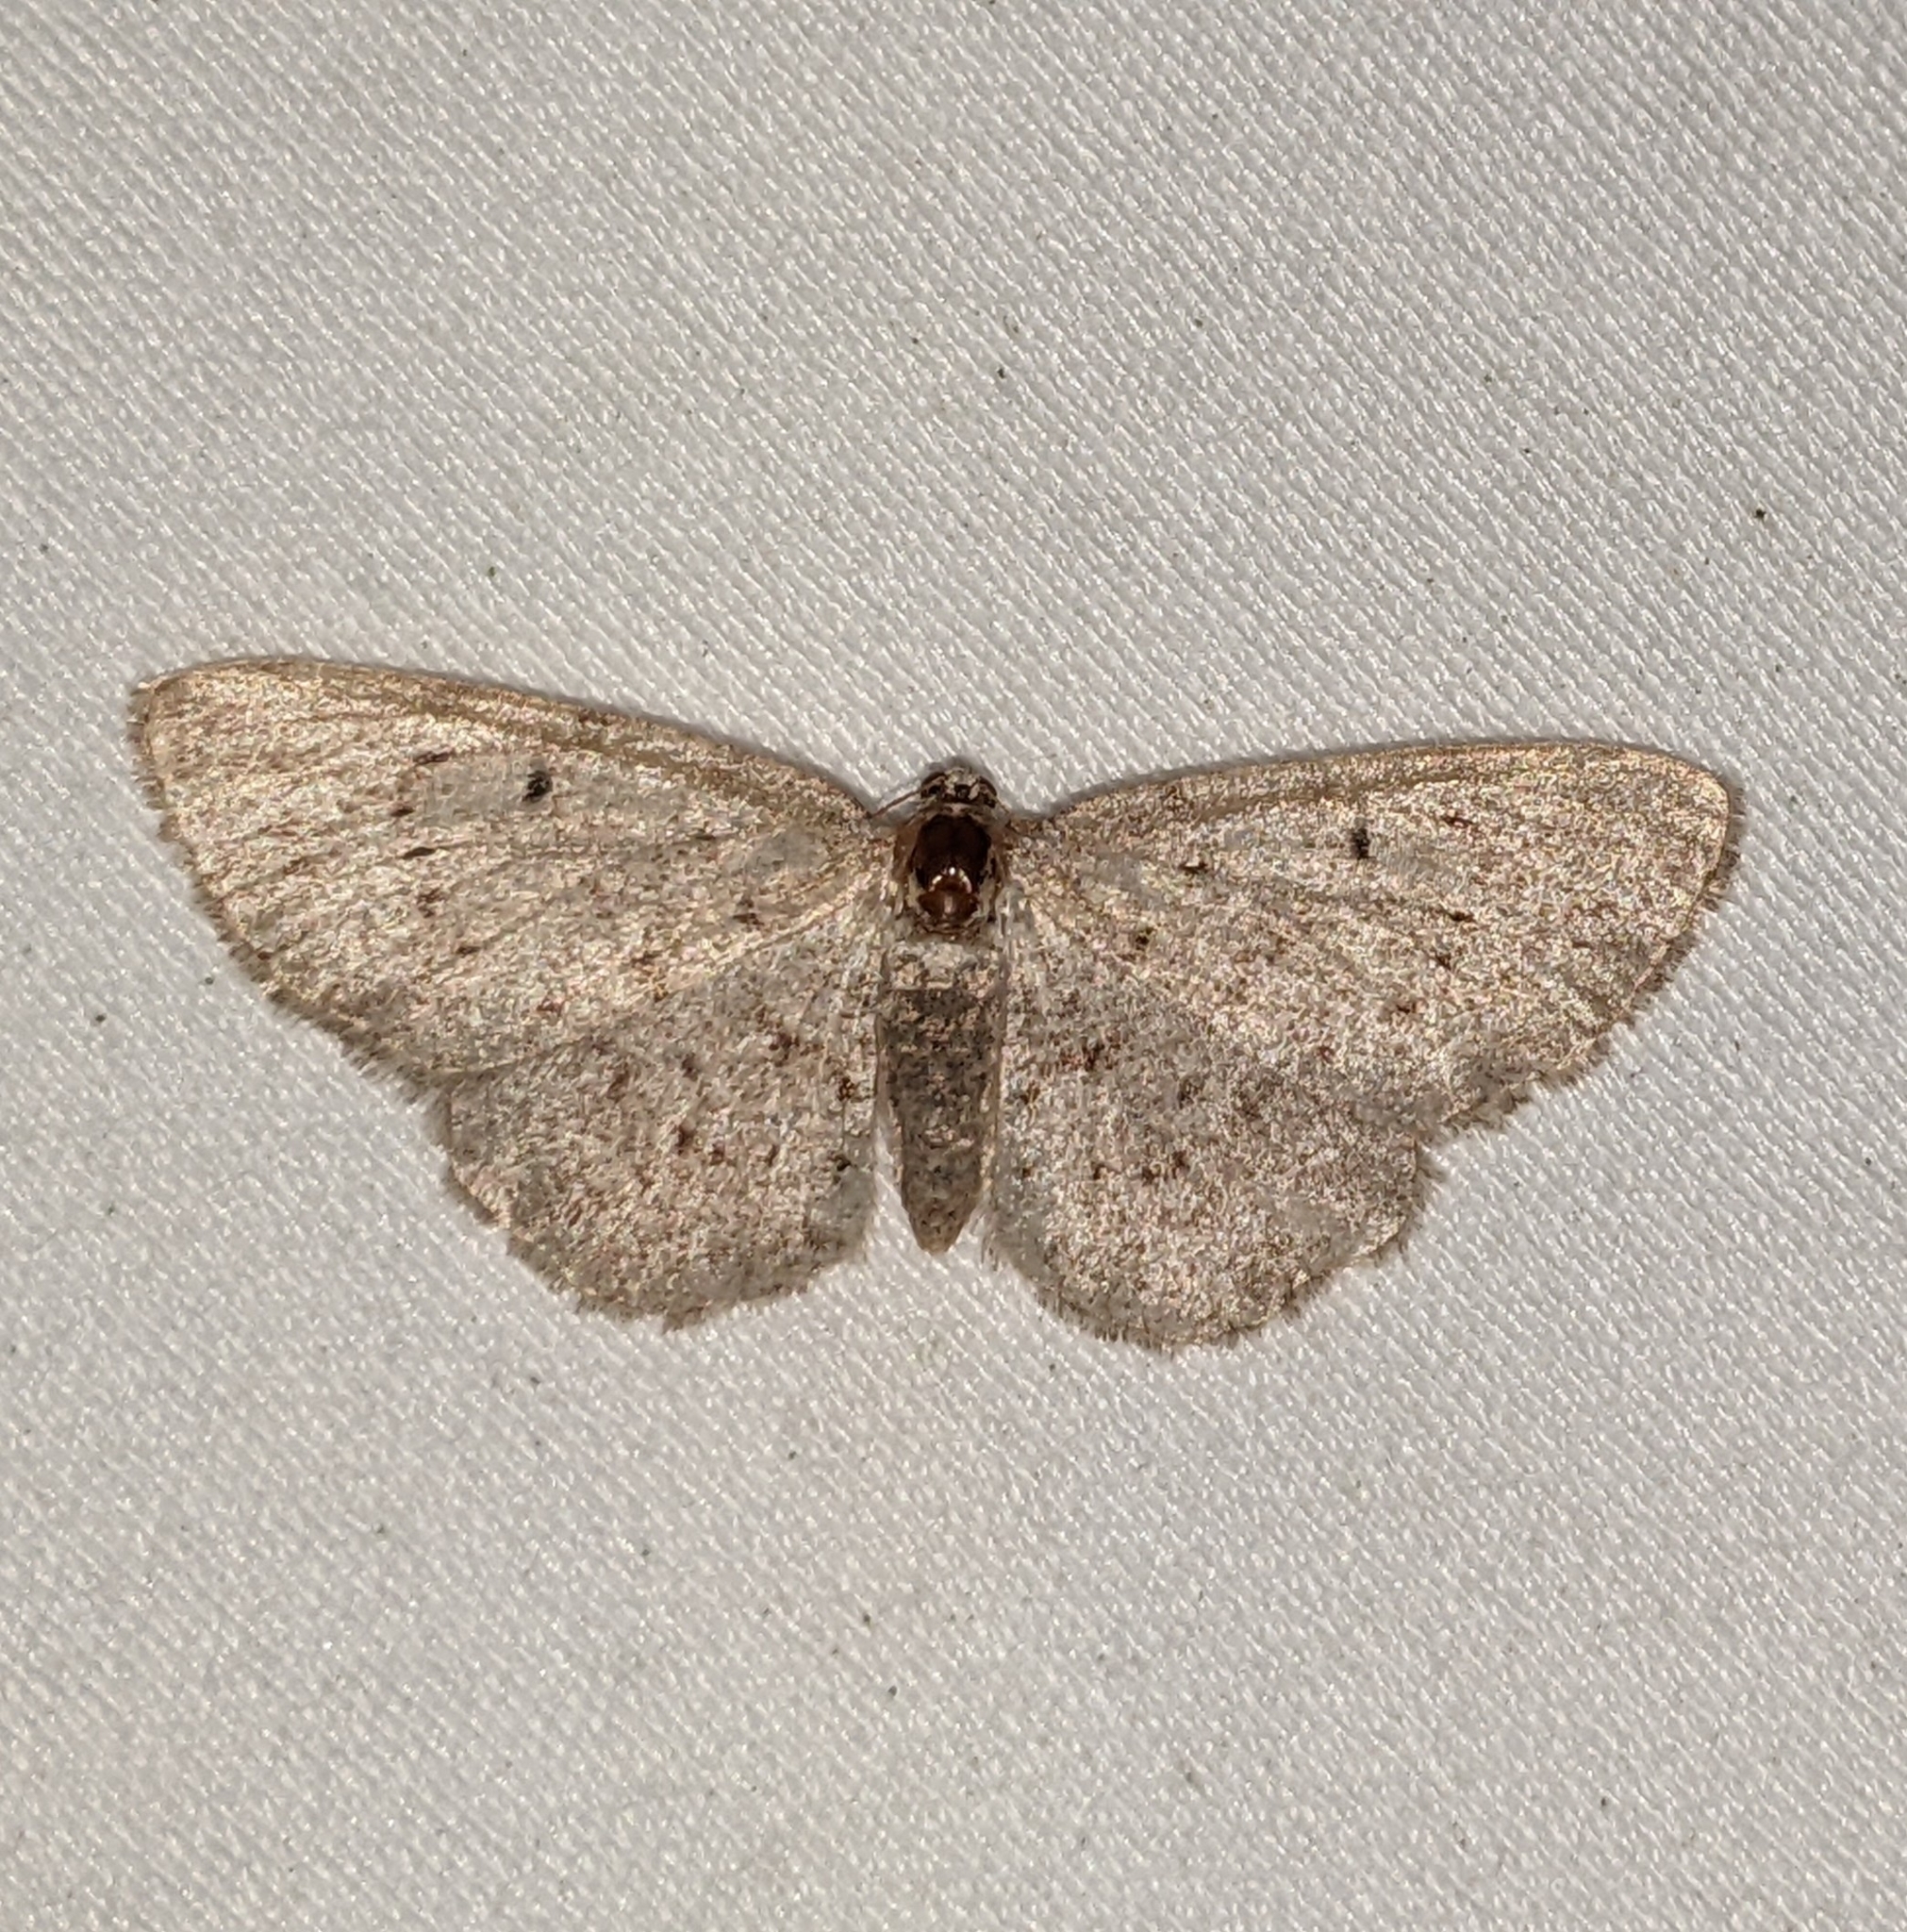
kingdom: Animalia
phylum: Arthropoda
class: Insecta
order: Lepidoptera
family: Geometridae
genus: Aethalura
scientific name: Aethalura intertexta
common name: Four-barred gray
